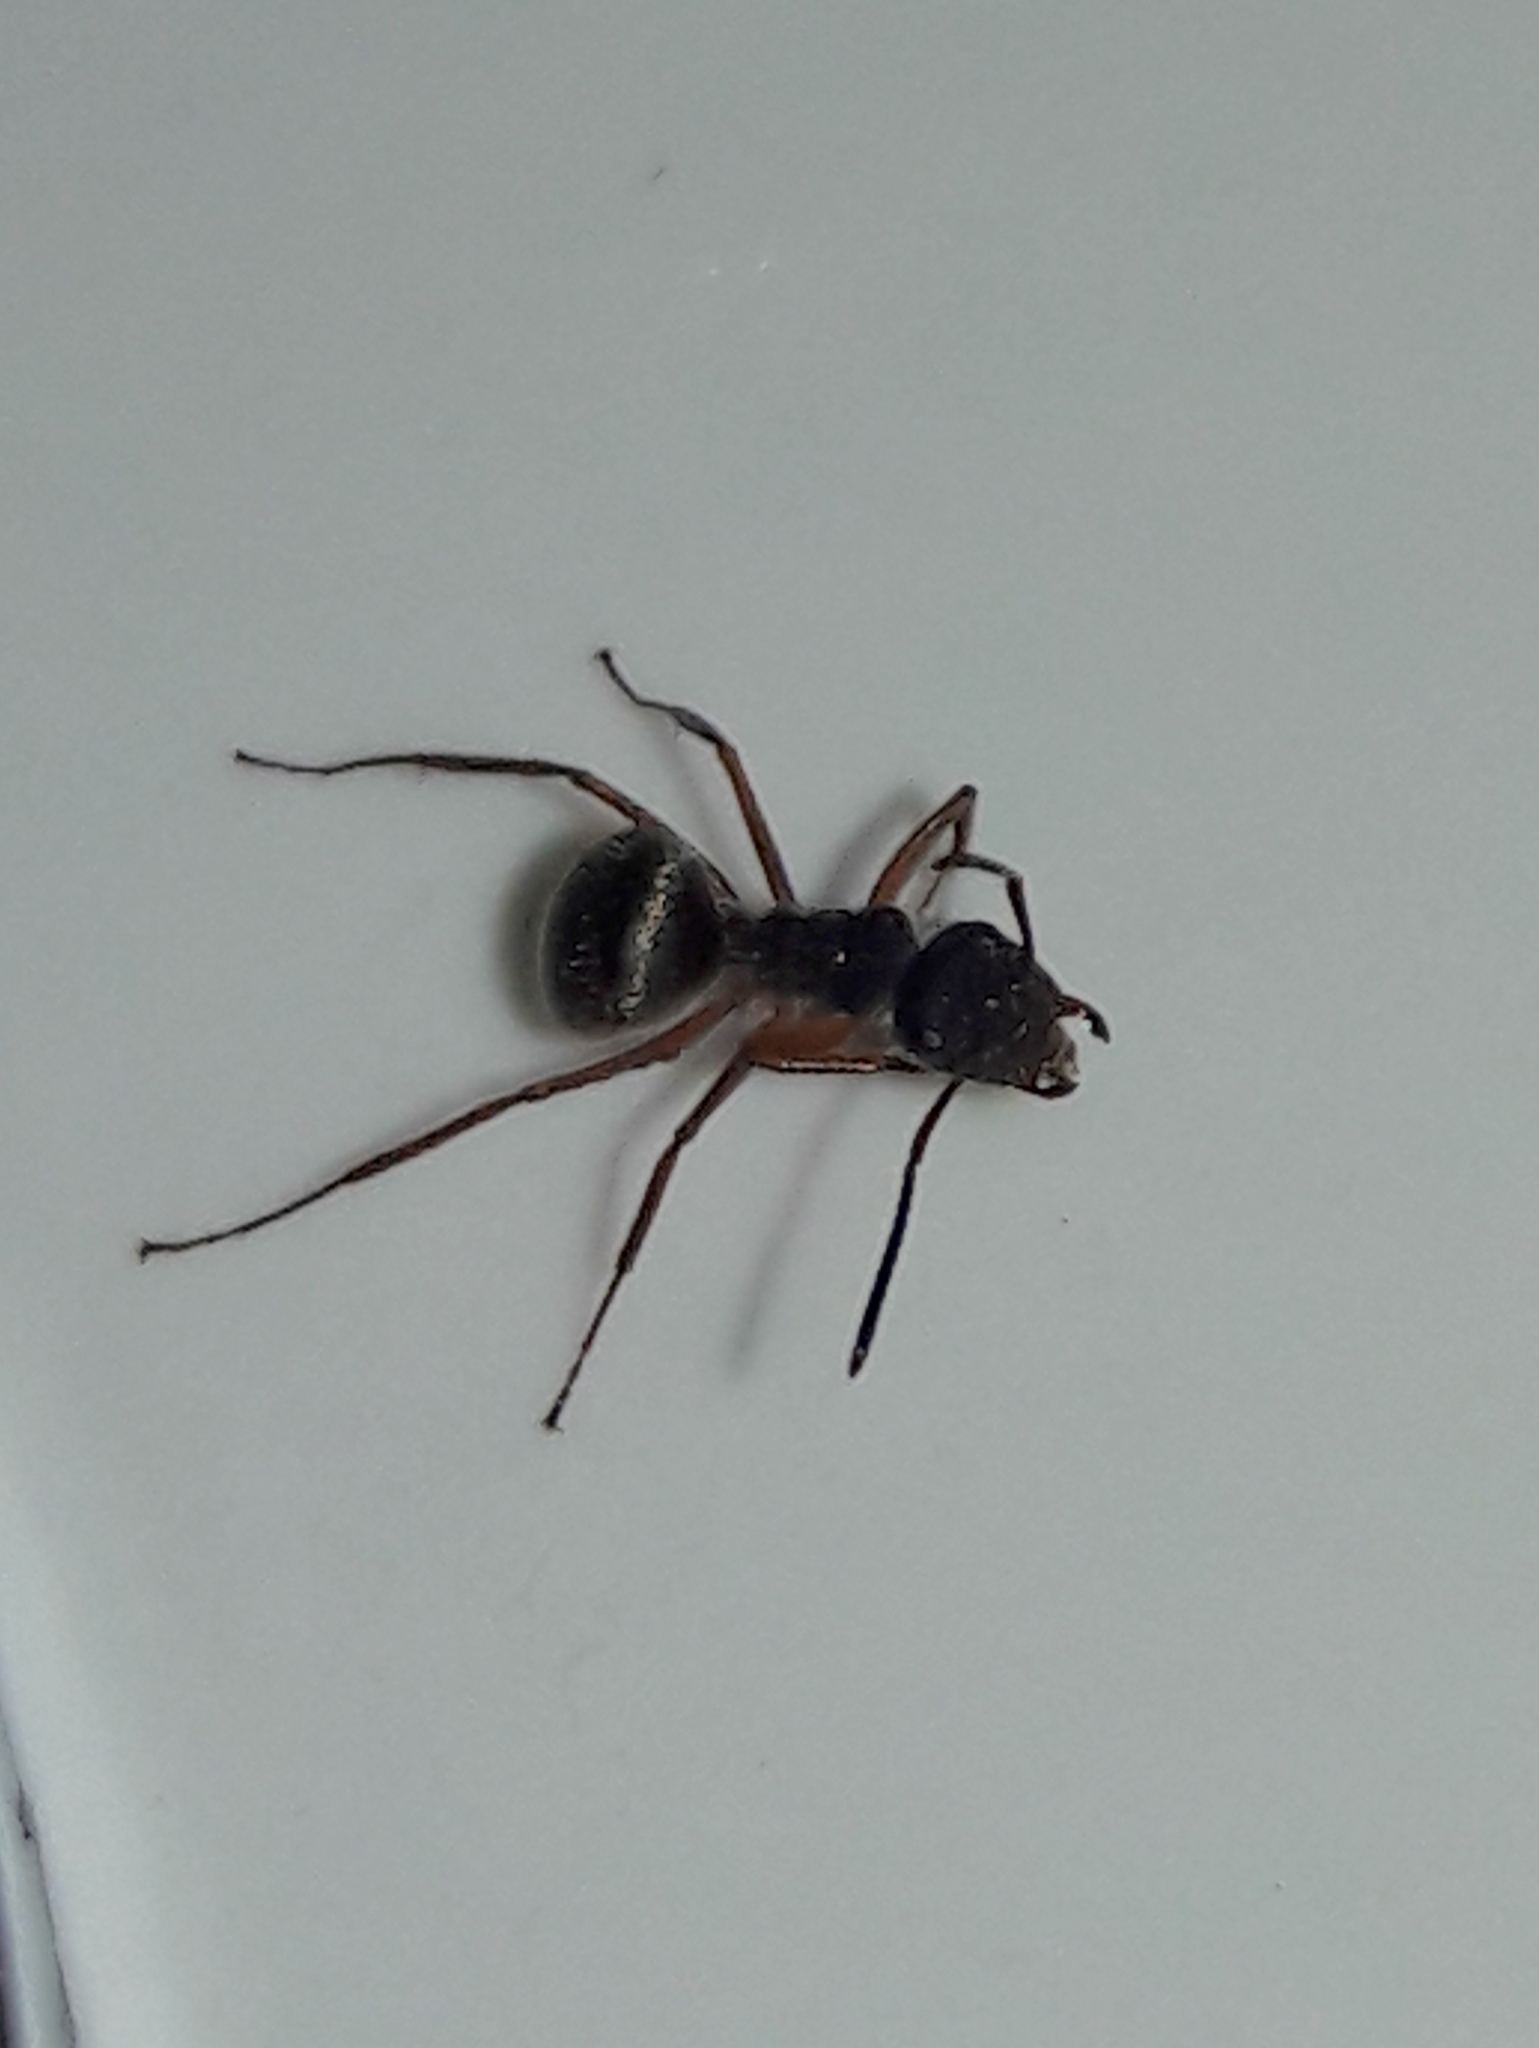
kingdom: Animalia
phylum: Arthropoda
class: Insecta
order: Hymenoptera
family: Formicidae
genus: Camponotus
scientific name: Camponotus textor
